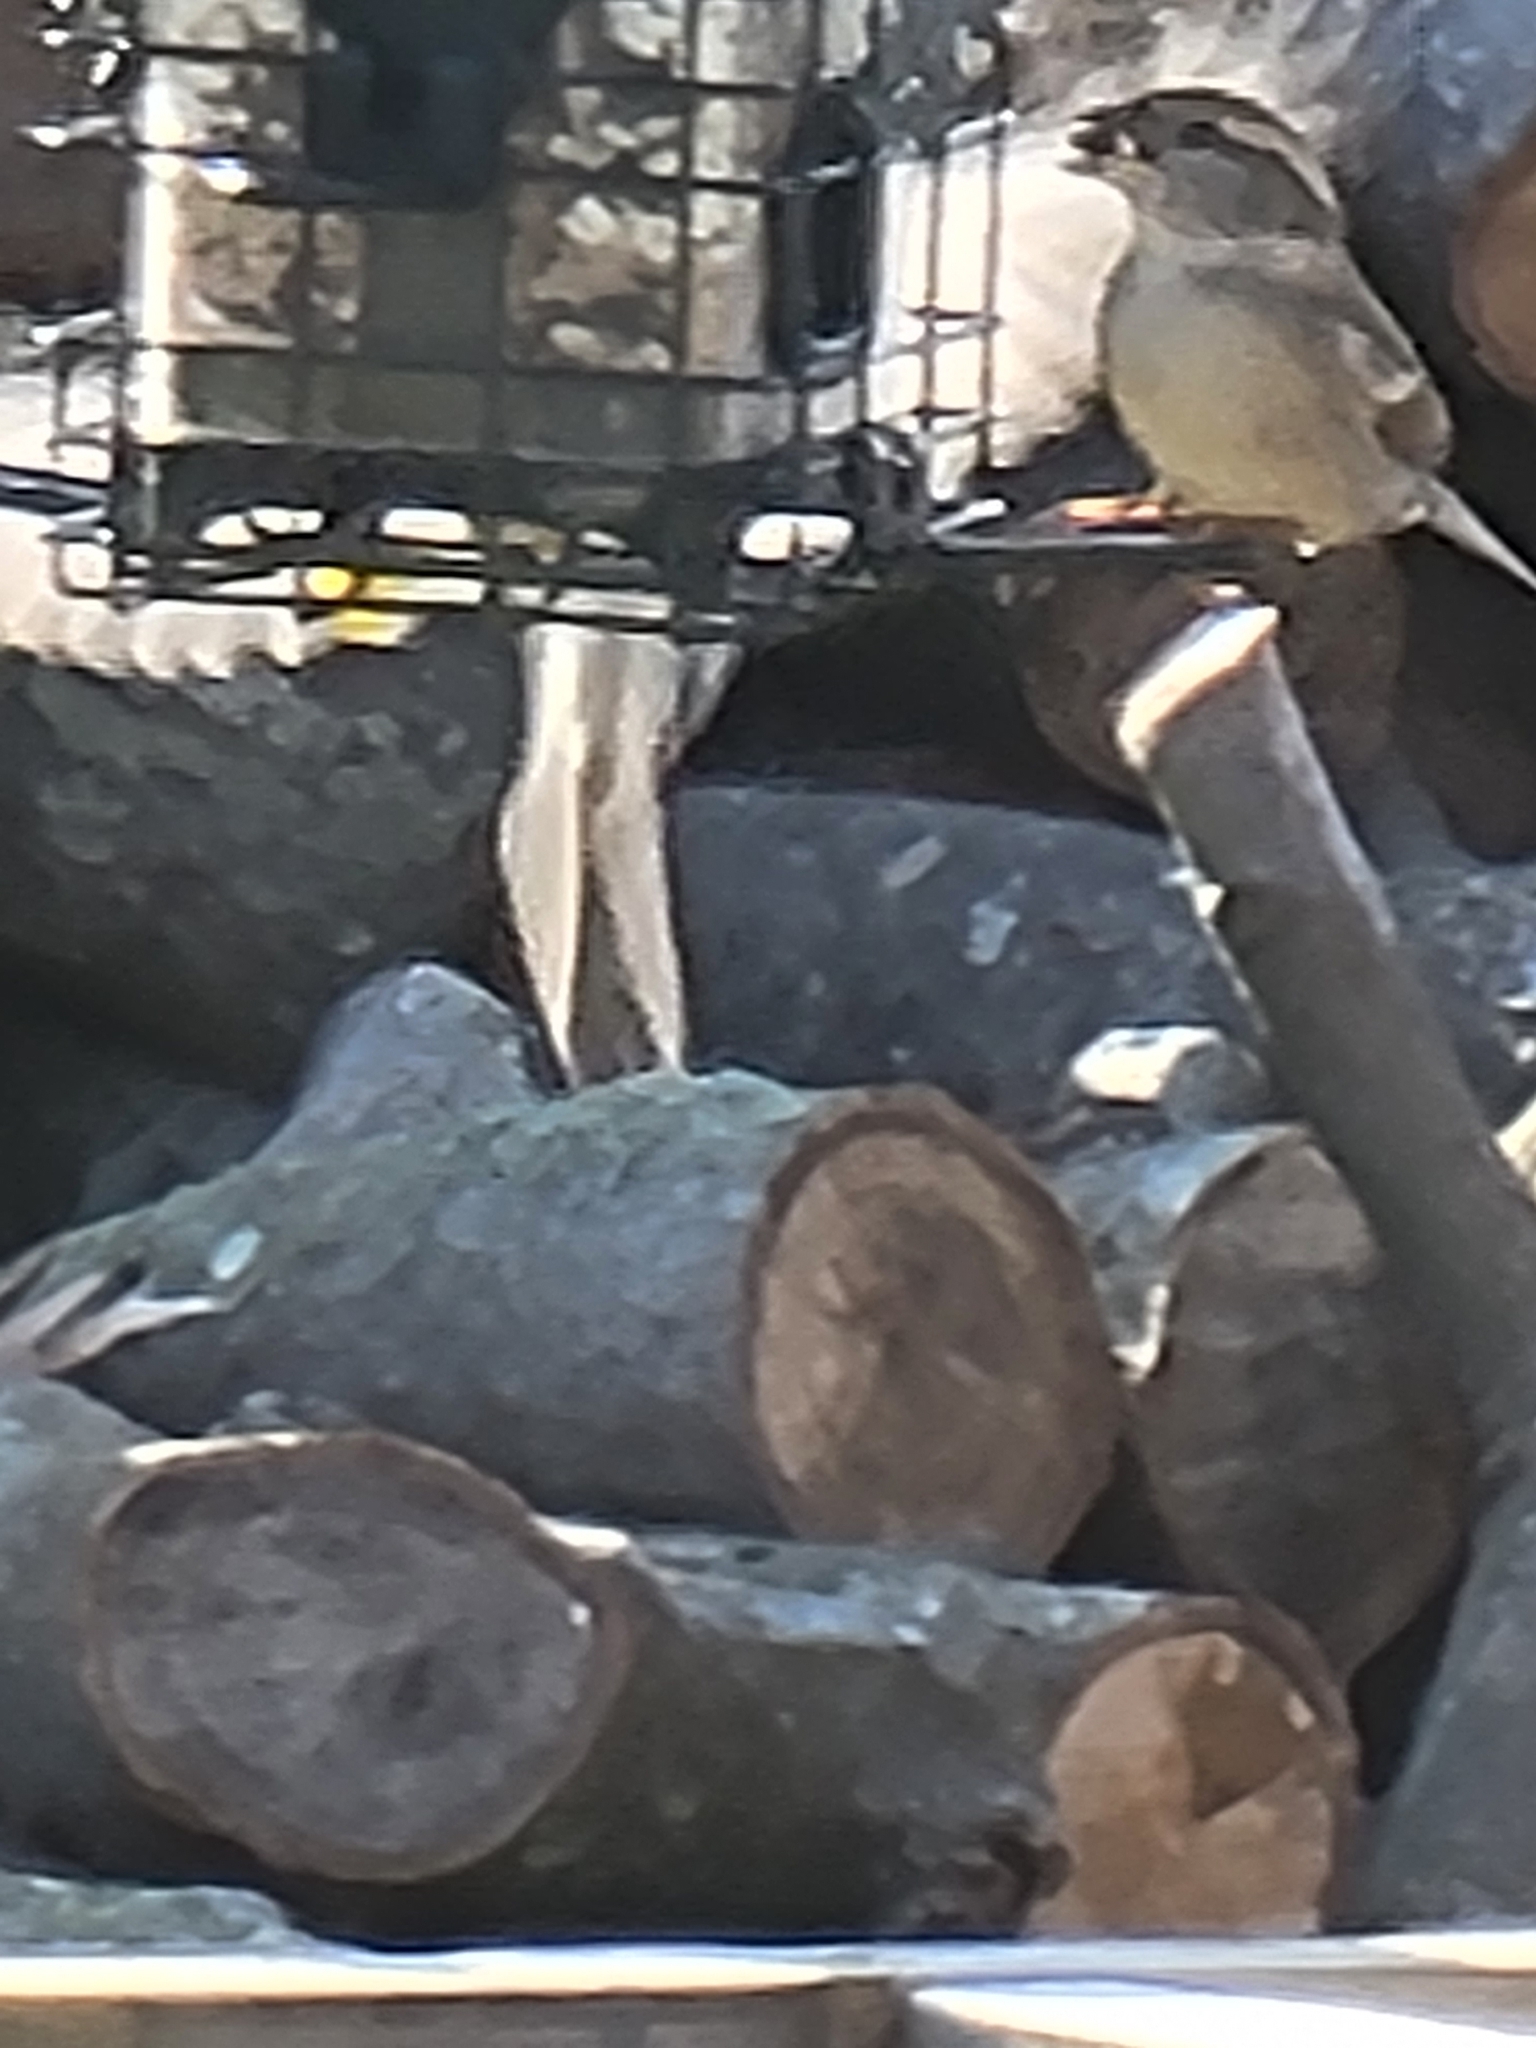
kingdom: Animalia
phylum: Chordata
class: Aves
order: Passeriformes
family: Passeridae
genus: Passer
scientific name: Passer domesticus
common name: House sparrow
